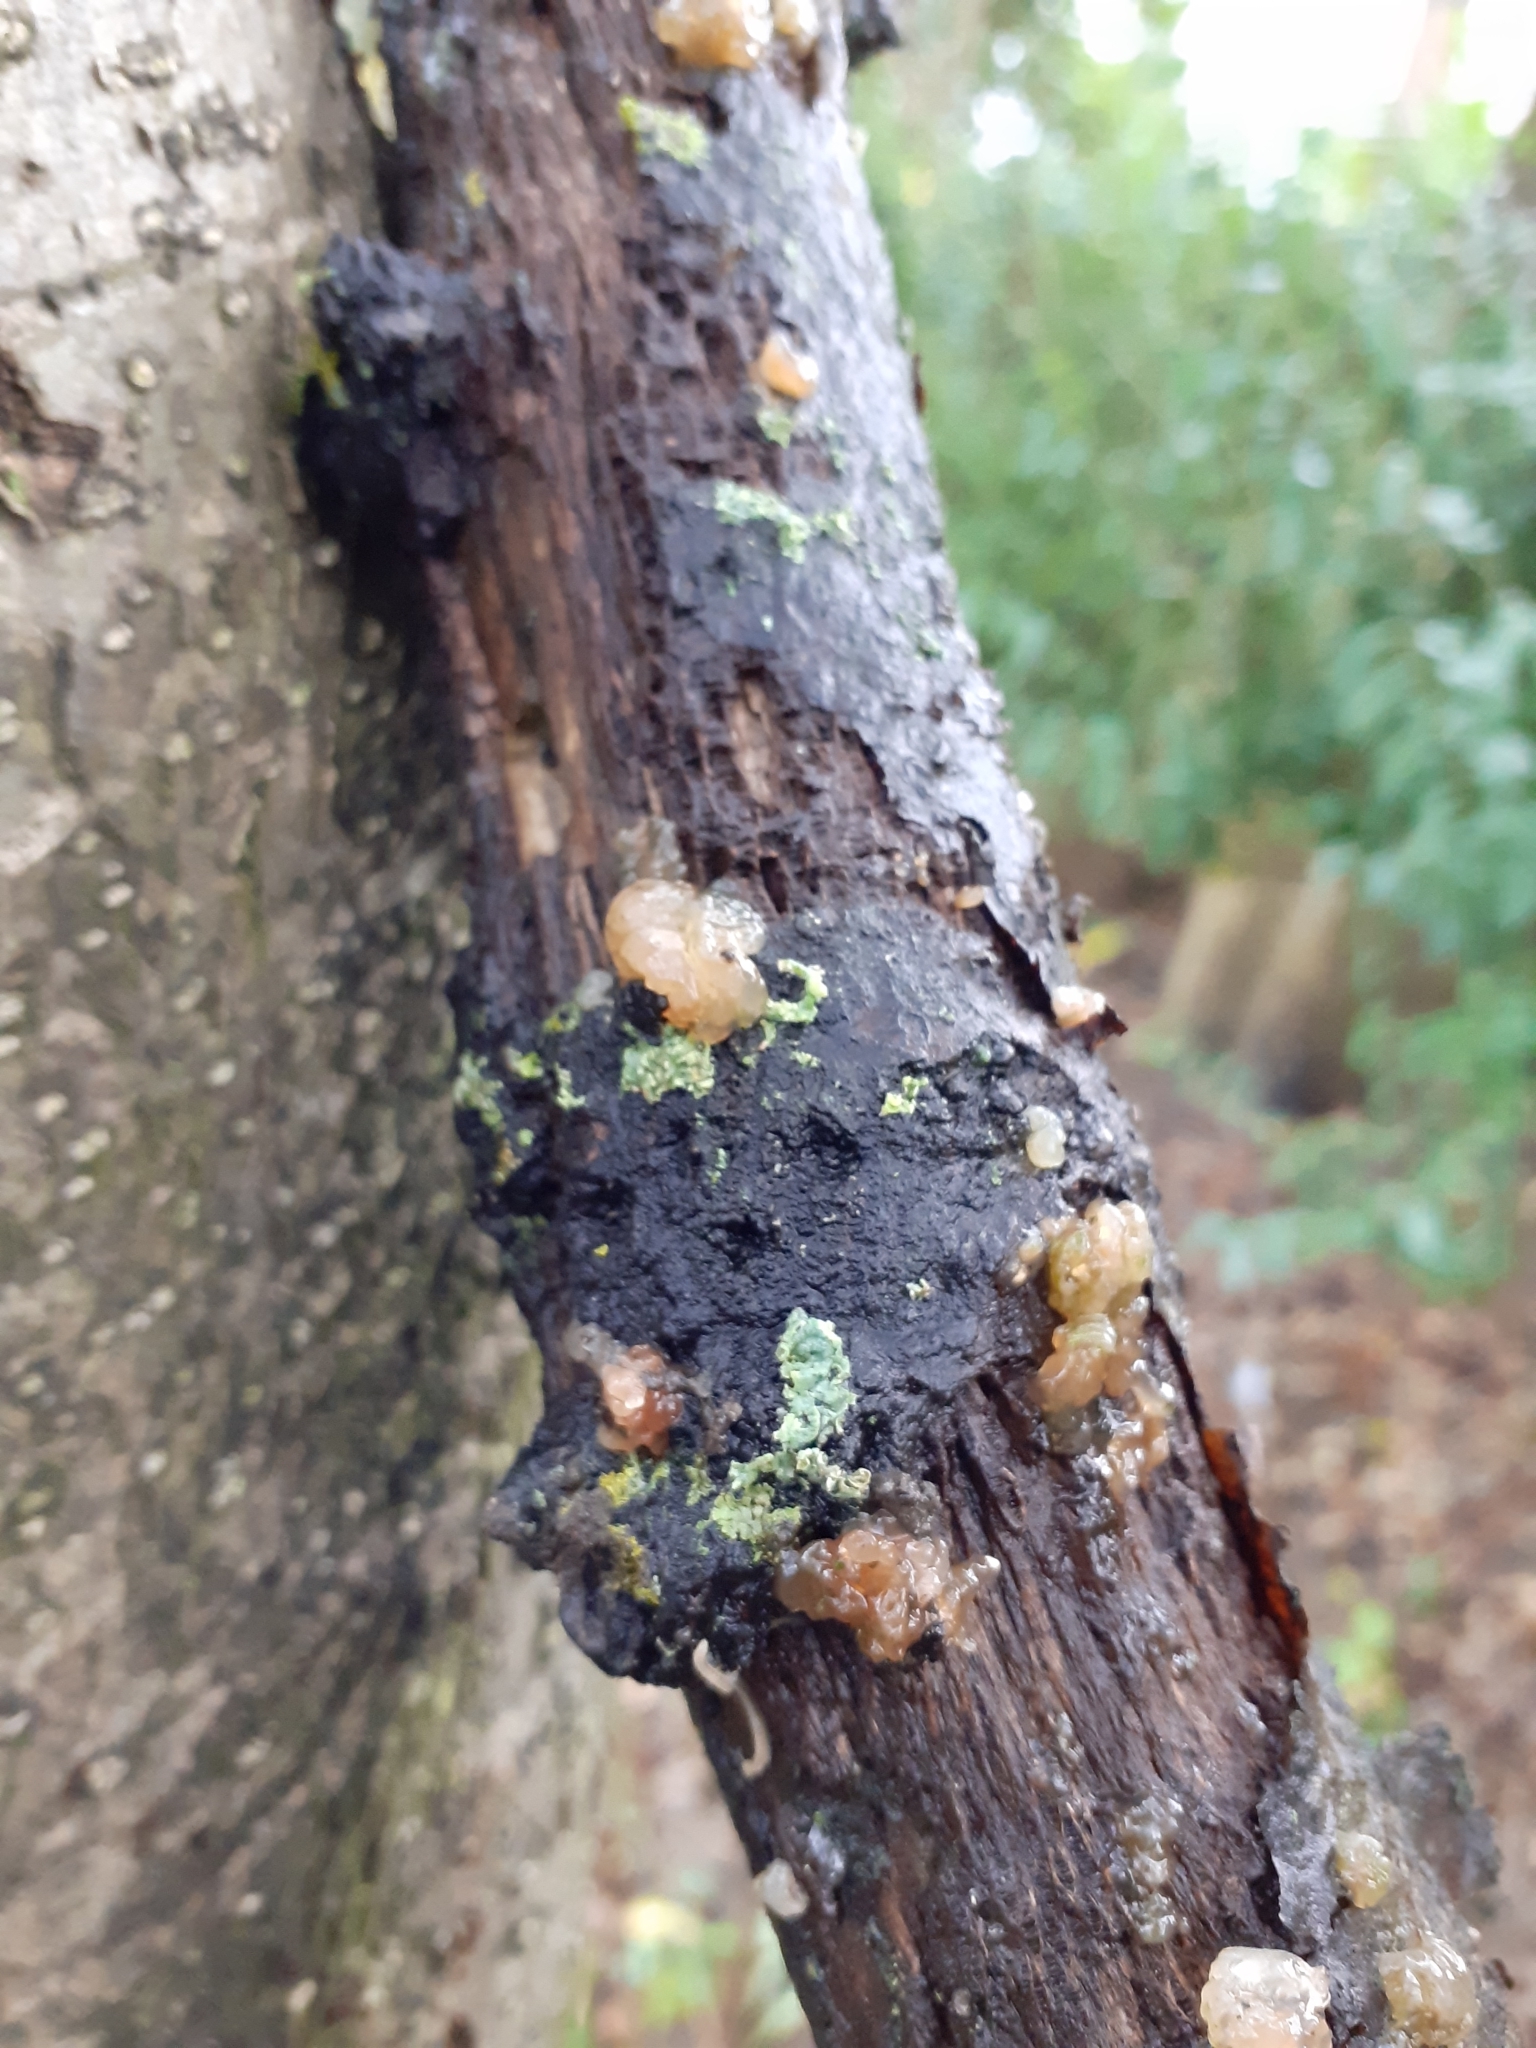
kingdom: Fungi
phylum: Basidiomycota
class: Agaricomycetes
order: Auriculariales
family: Hyaloriaceae
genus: Myxarium
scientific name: Myxarium nucleatum
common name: Crystal brain fungus
